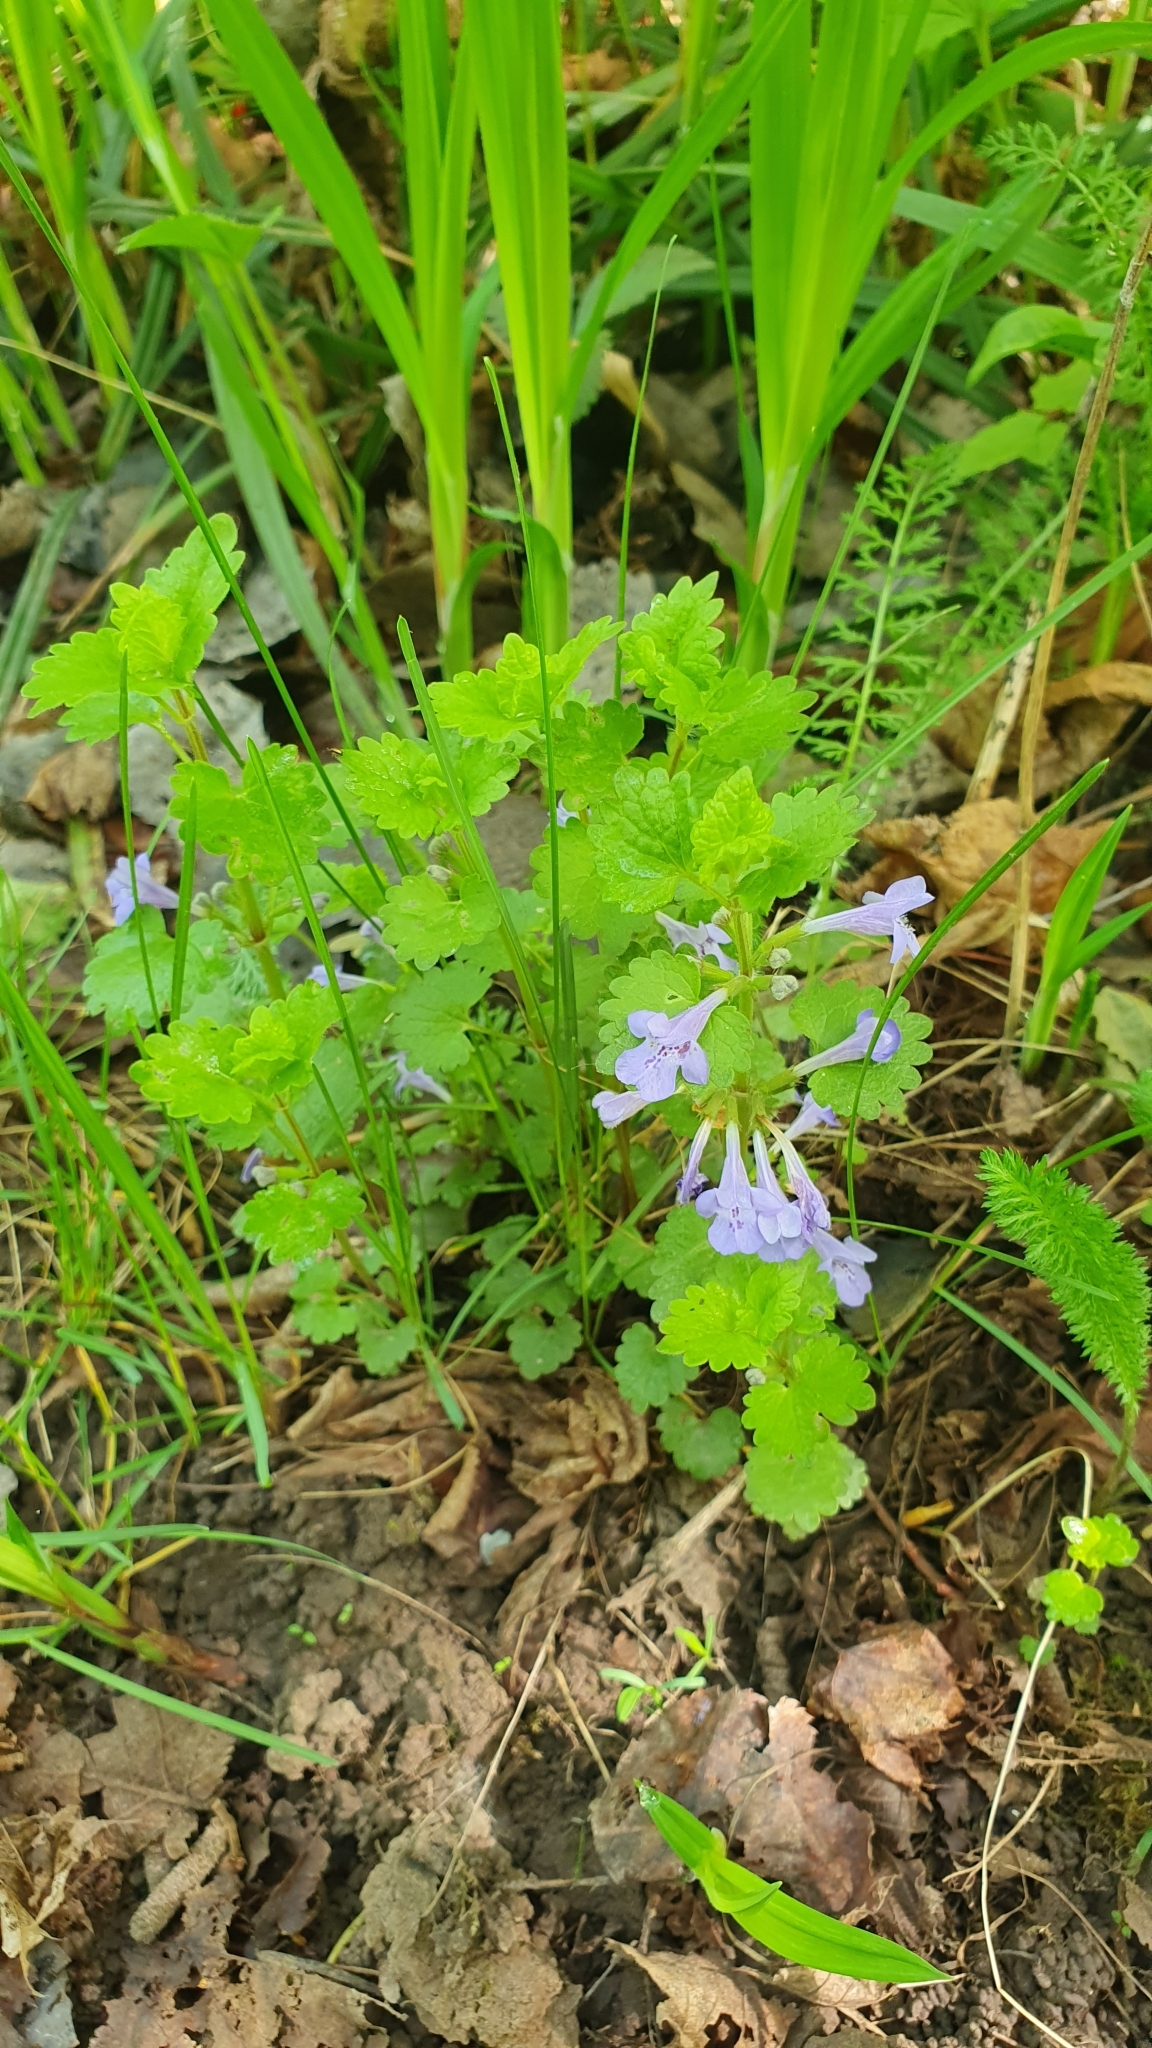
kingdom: Plantae
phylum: Tracheophyta
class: Magnoliopsida
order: Lamiales
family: Lamiaceae
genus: Glechoma
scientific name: Glechoma hederacea
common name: Ground ivy
